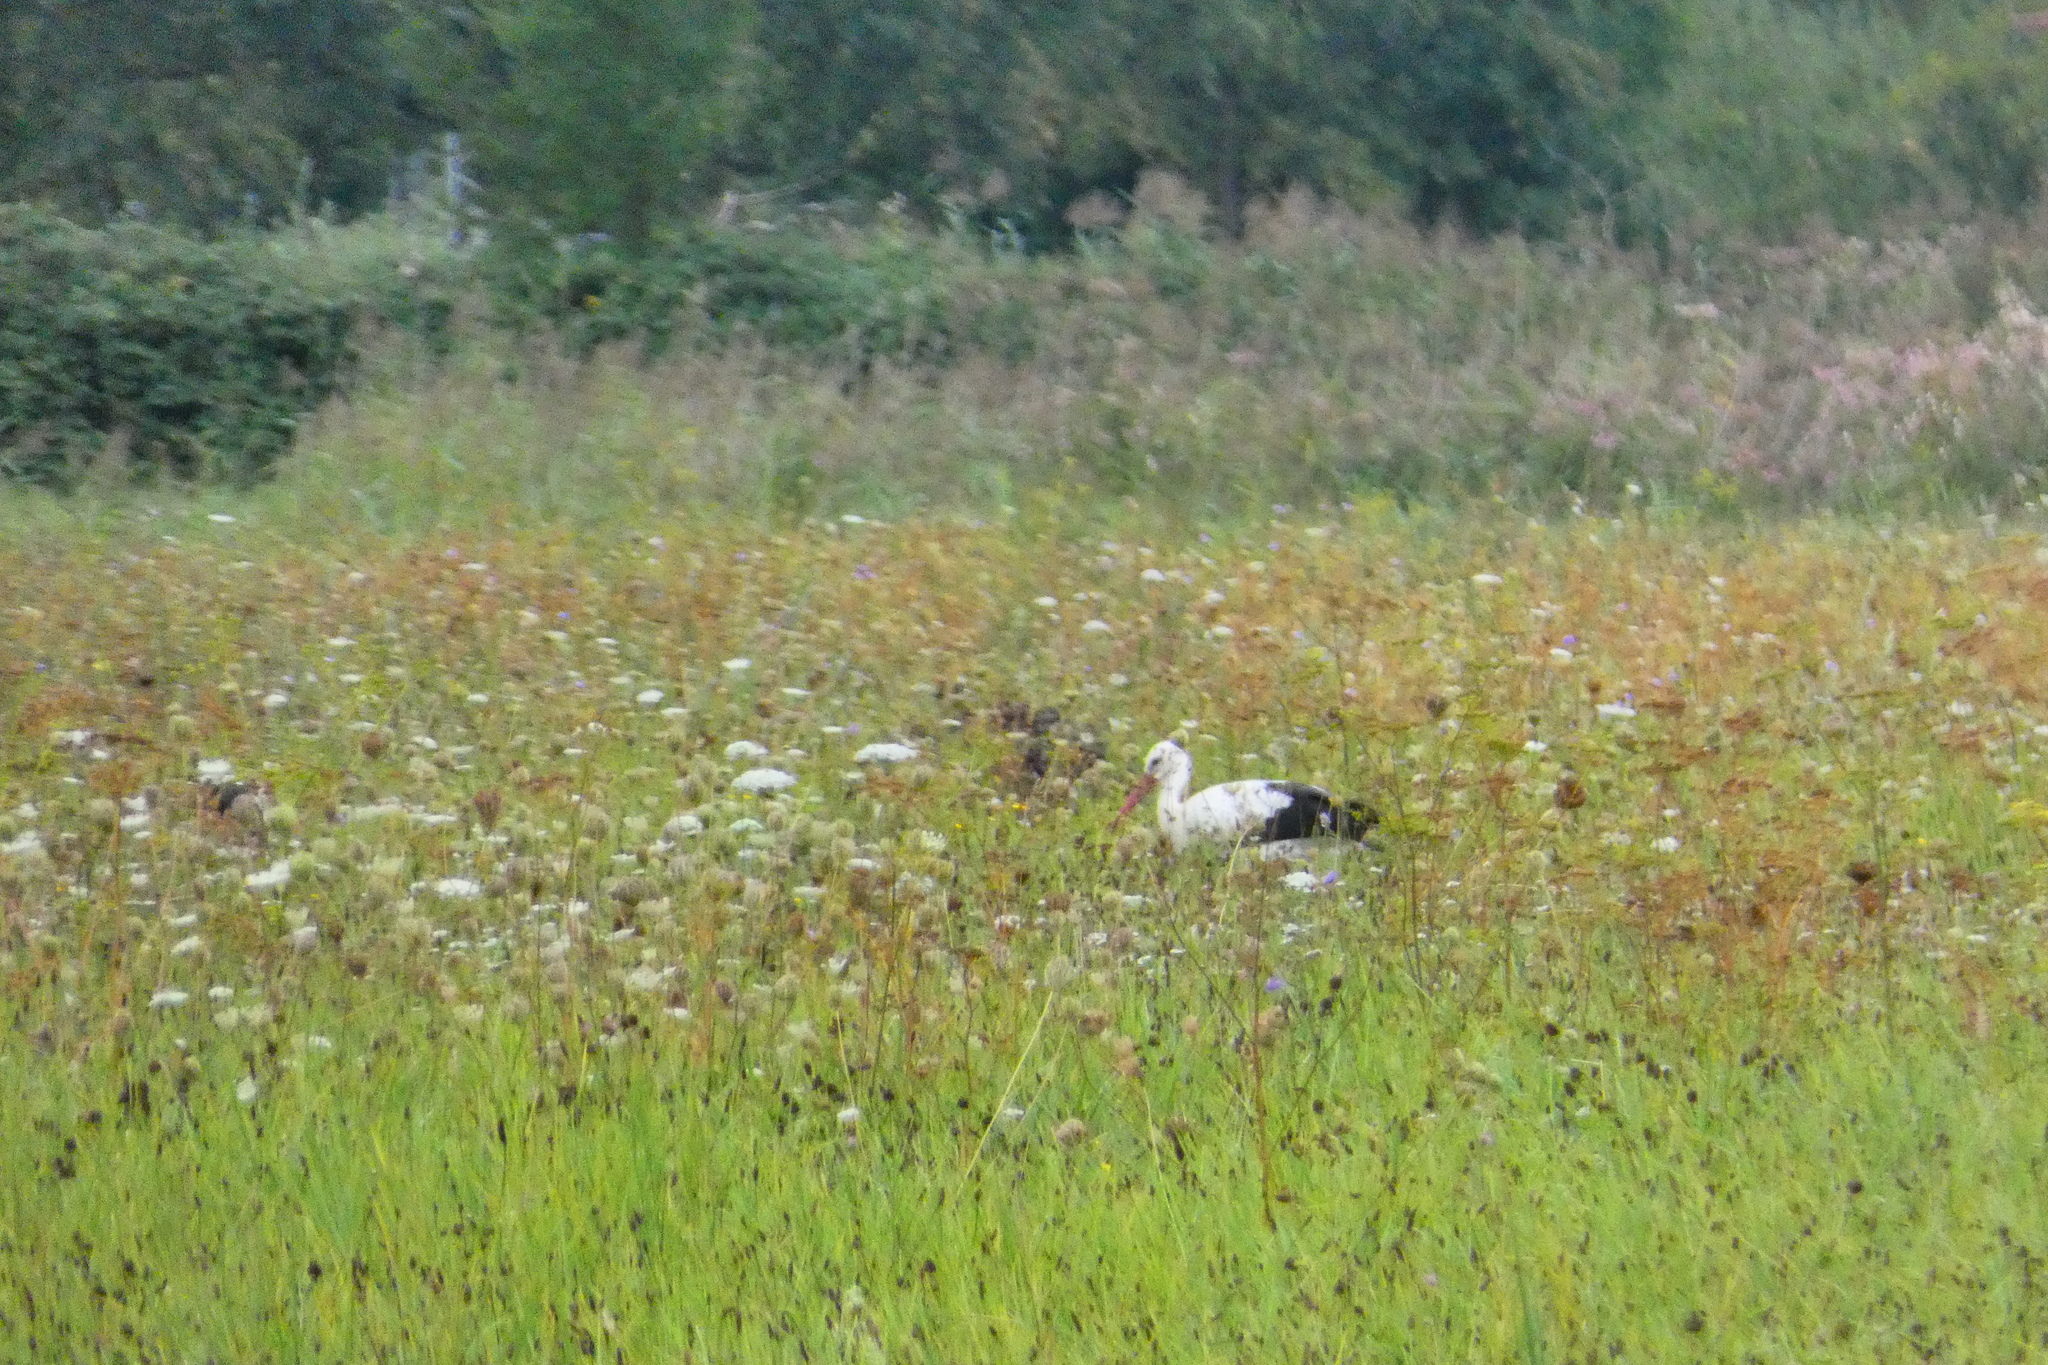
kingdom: Animalia
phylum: Chordata
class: Aves
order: Ciconiiformes
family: Ciconiidae
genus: Ciconia
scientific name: Ciconia ciconia
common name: White stork
